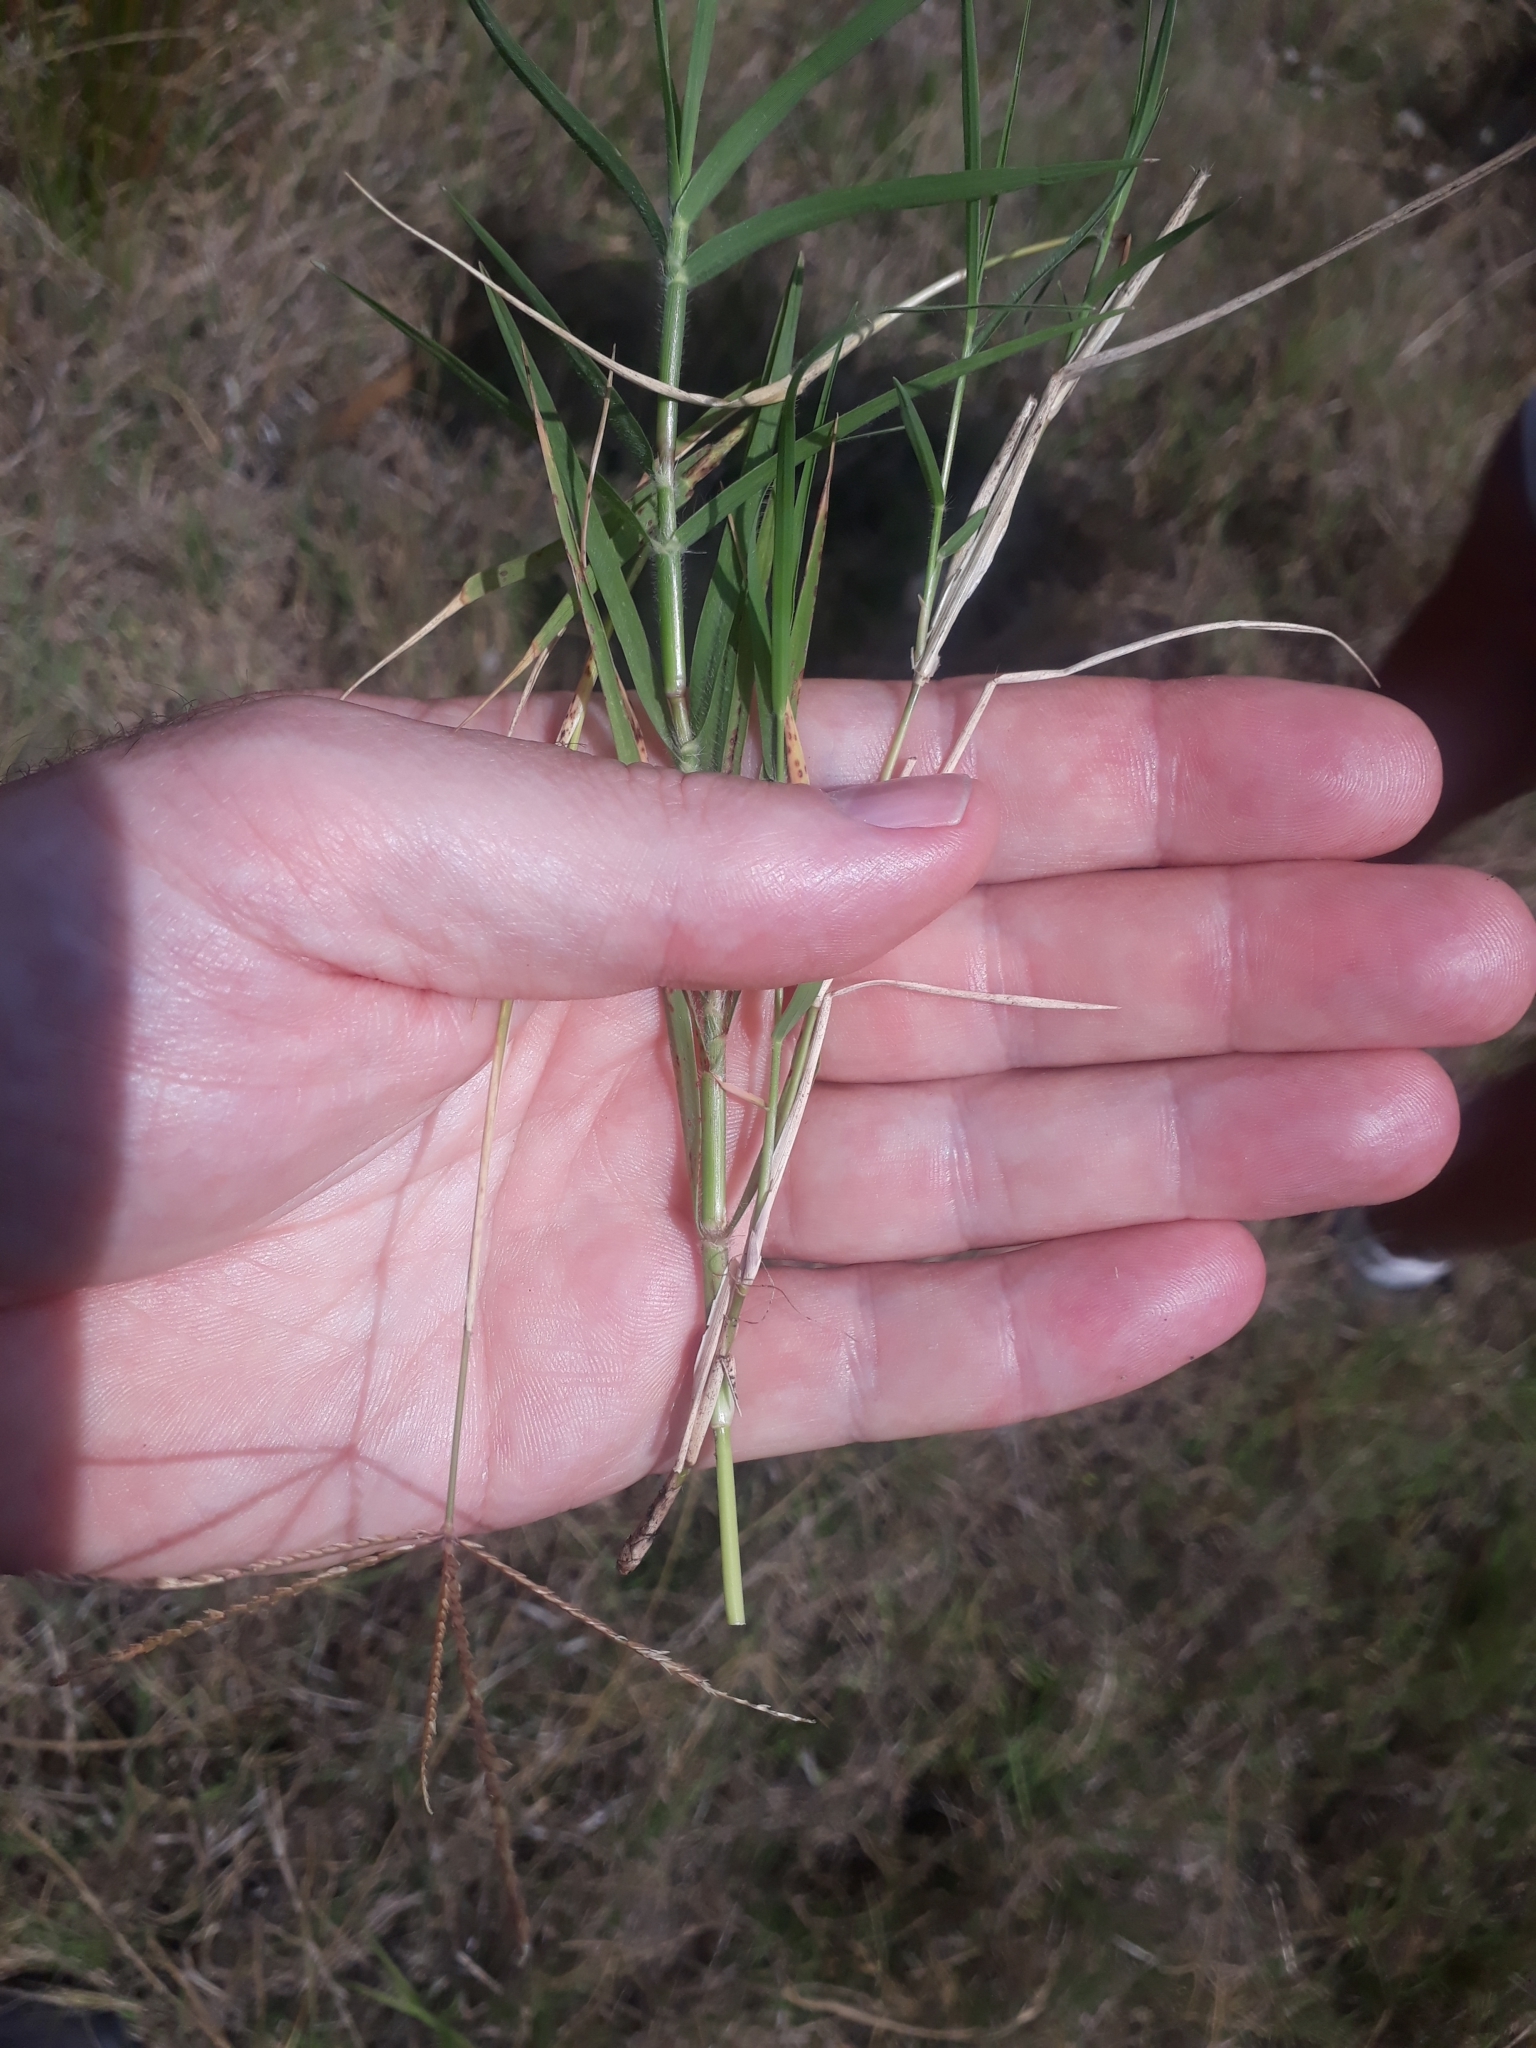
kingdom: Plantae
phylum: Tracheophyta
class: Liliopsida
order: Poales
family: Poaceae
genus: Cynodon
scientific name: Cynodon dactylon
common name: Bermuda grass
